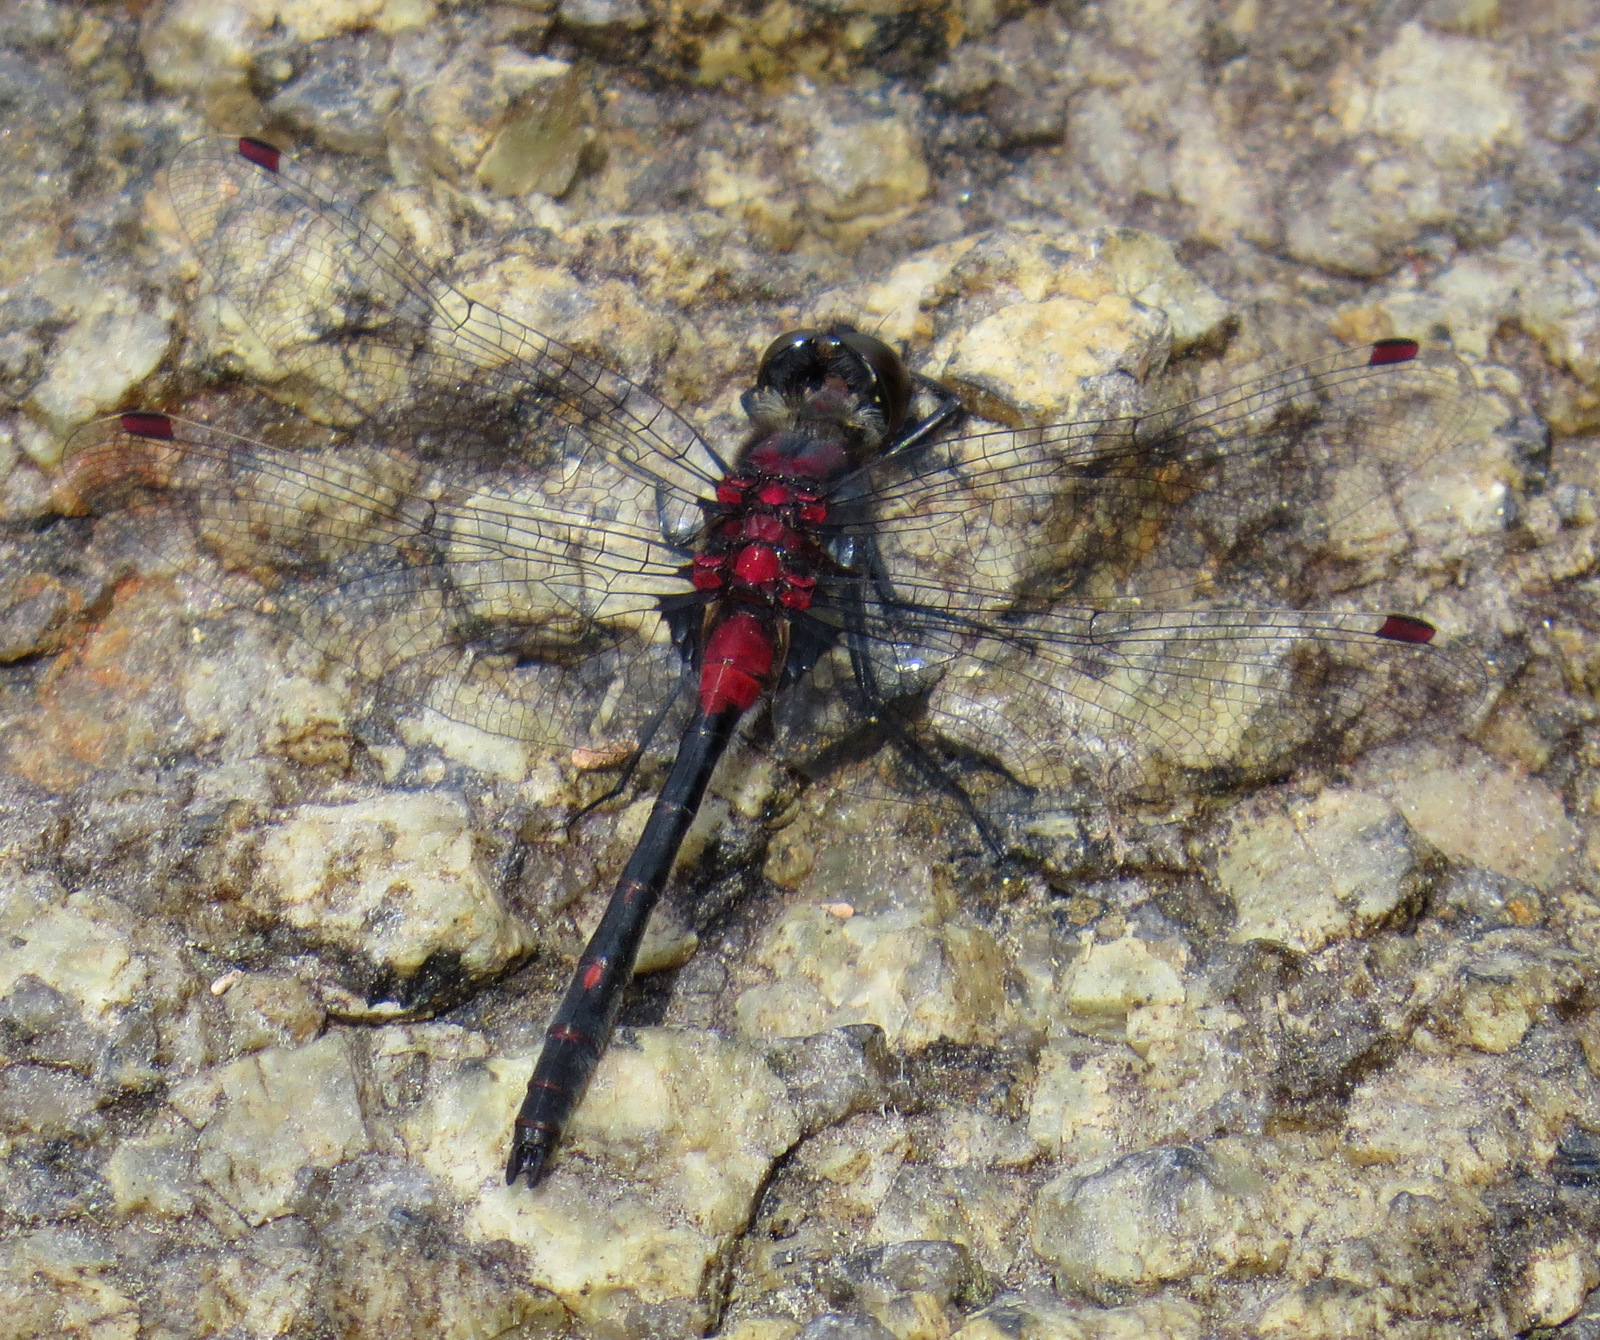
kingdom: Animalia
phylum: Arthropoda
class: Insecta
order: Odonata
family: Libellulidae
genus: Leucorrhinia
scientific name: Leucorrhinia glacialis
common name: Crimson-ringed whiteface
